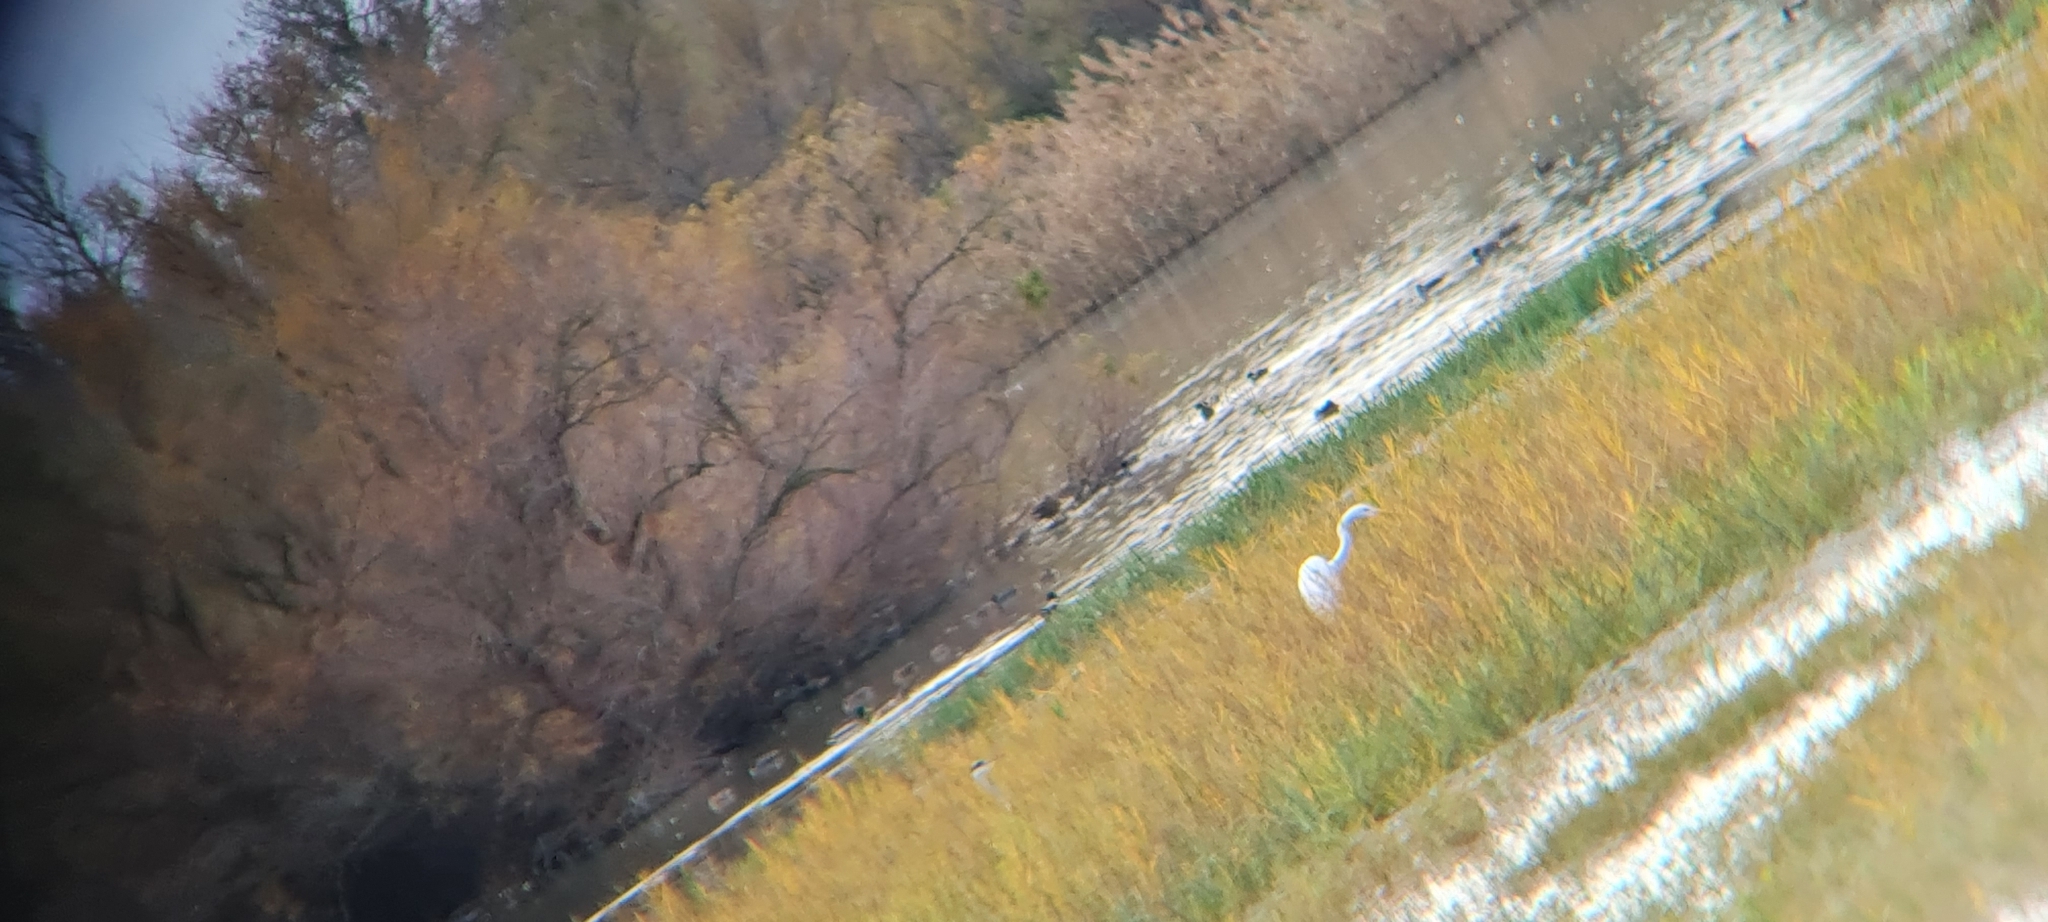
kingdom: Animalia
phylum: Chordata
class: Aves
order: Pelecaniformes
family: Ardeidae
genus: Ardea
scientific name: Ardea alba
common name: Great egret
